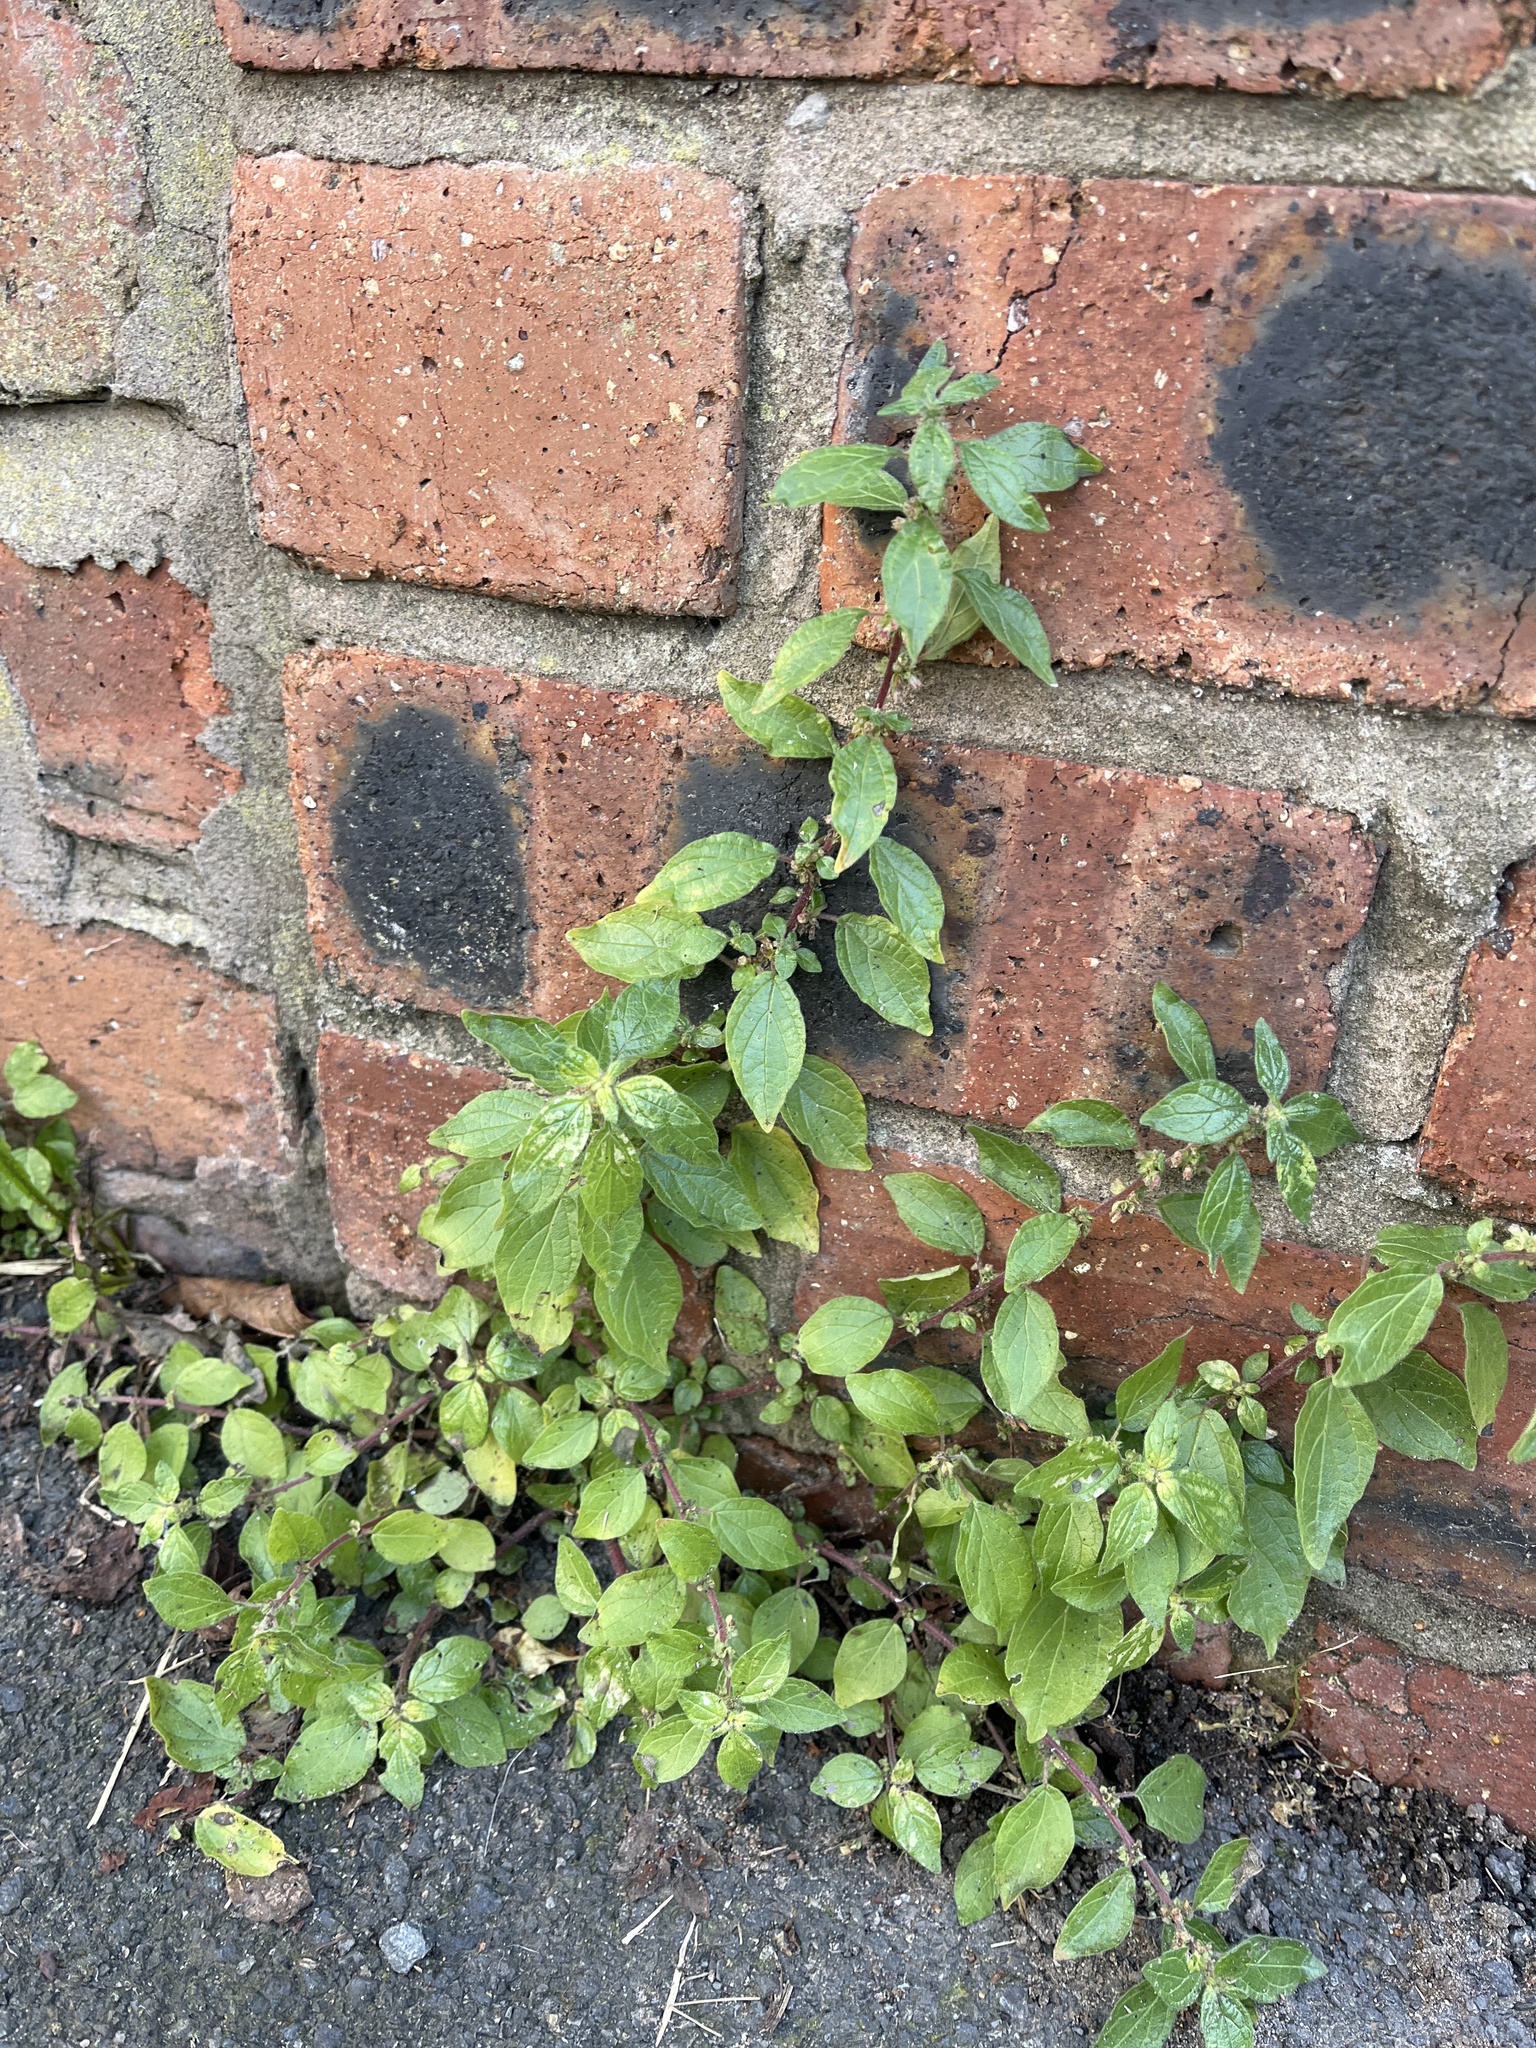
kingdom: Plantae
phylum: Tracheophyta
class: Magnoliopsida
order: Rosales
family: Urticaceae
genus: Parietaria
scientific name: Parietaria judaica
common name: Pellitory-of-the-wall
